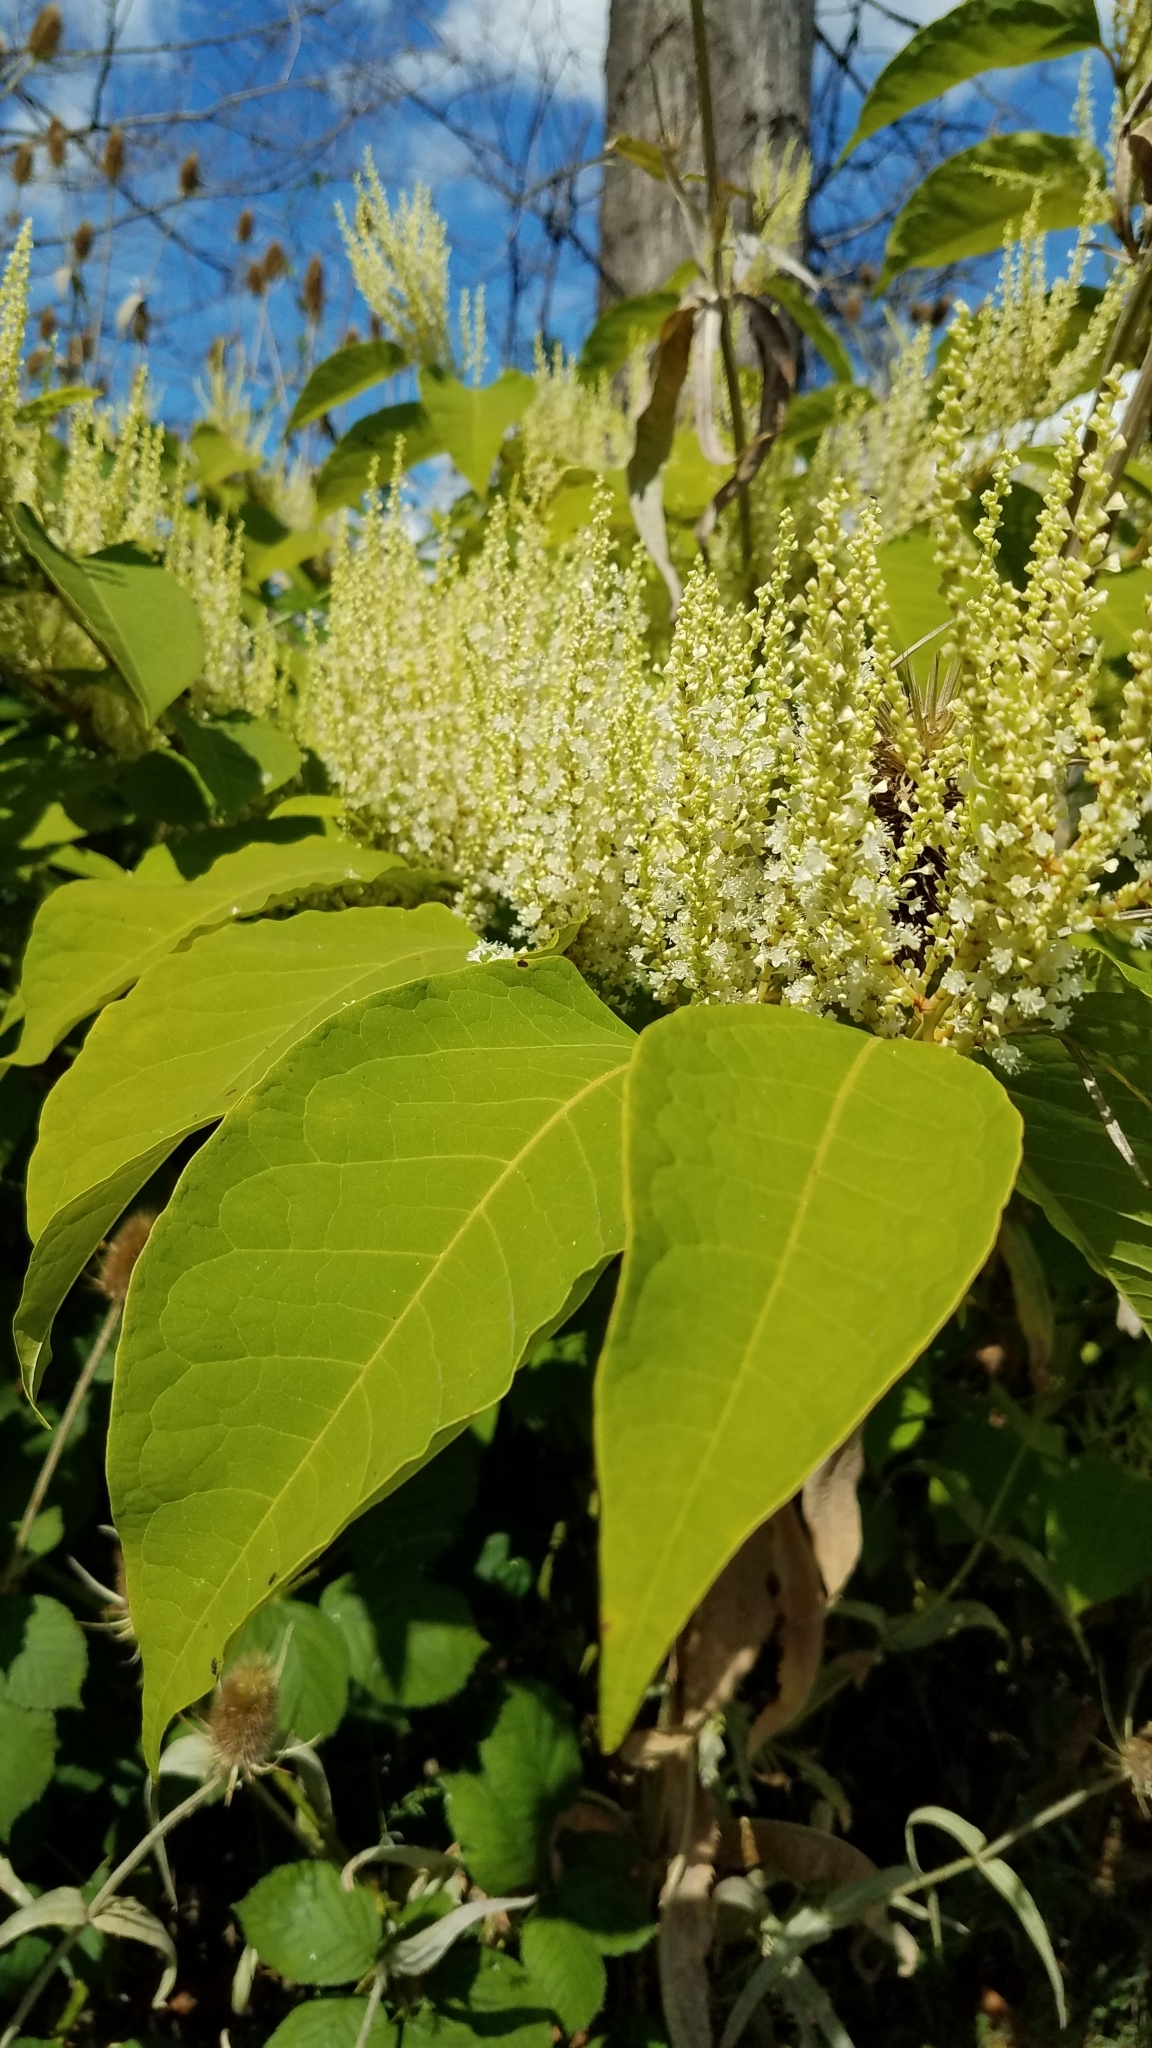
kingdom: Plantae
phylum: Tracheophyta
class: Magnoliopsida
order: Caryophyllales
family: Polygonaceae
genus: Reynoutria
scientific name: Reynoutria japonica
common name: Japanese knotweed
